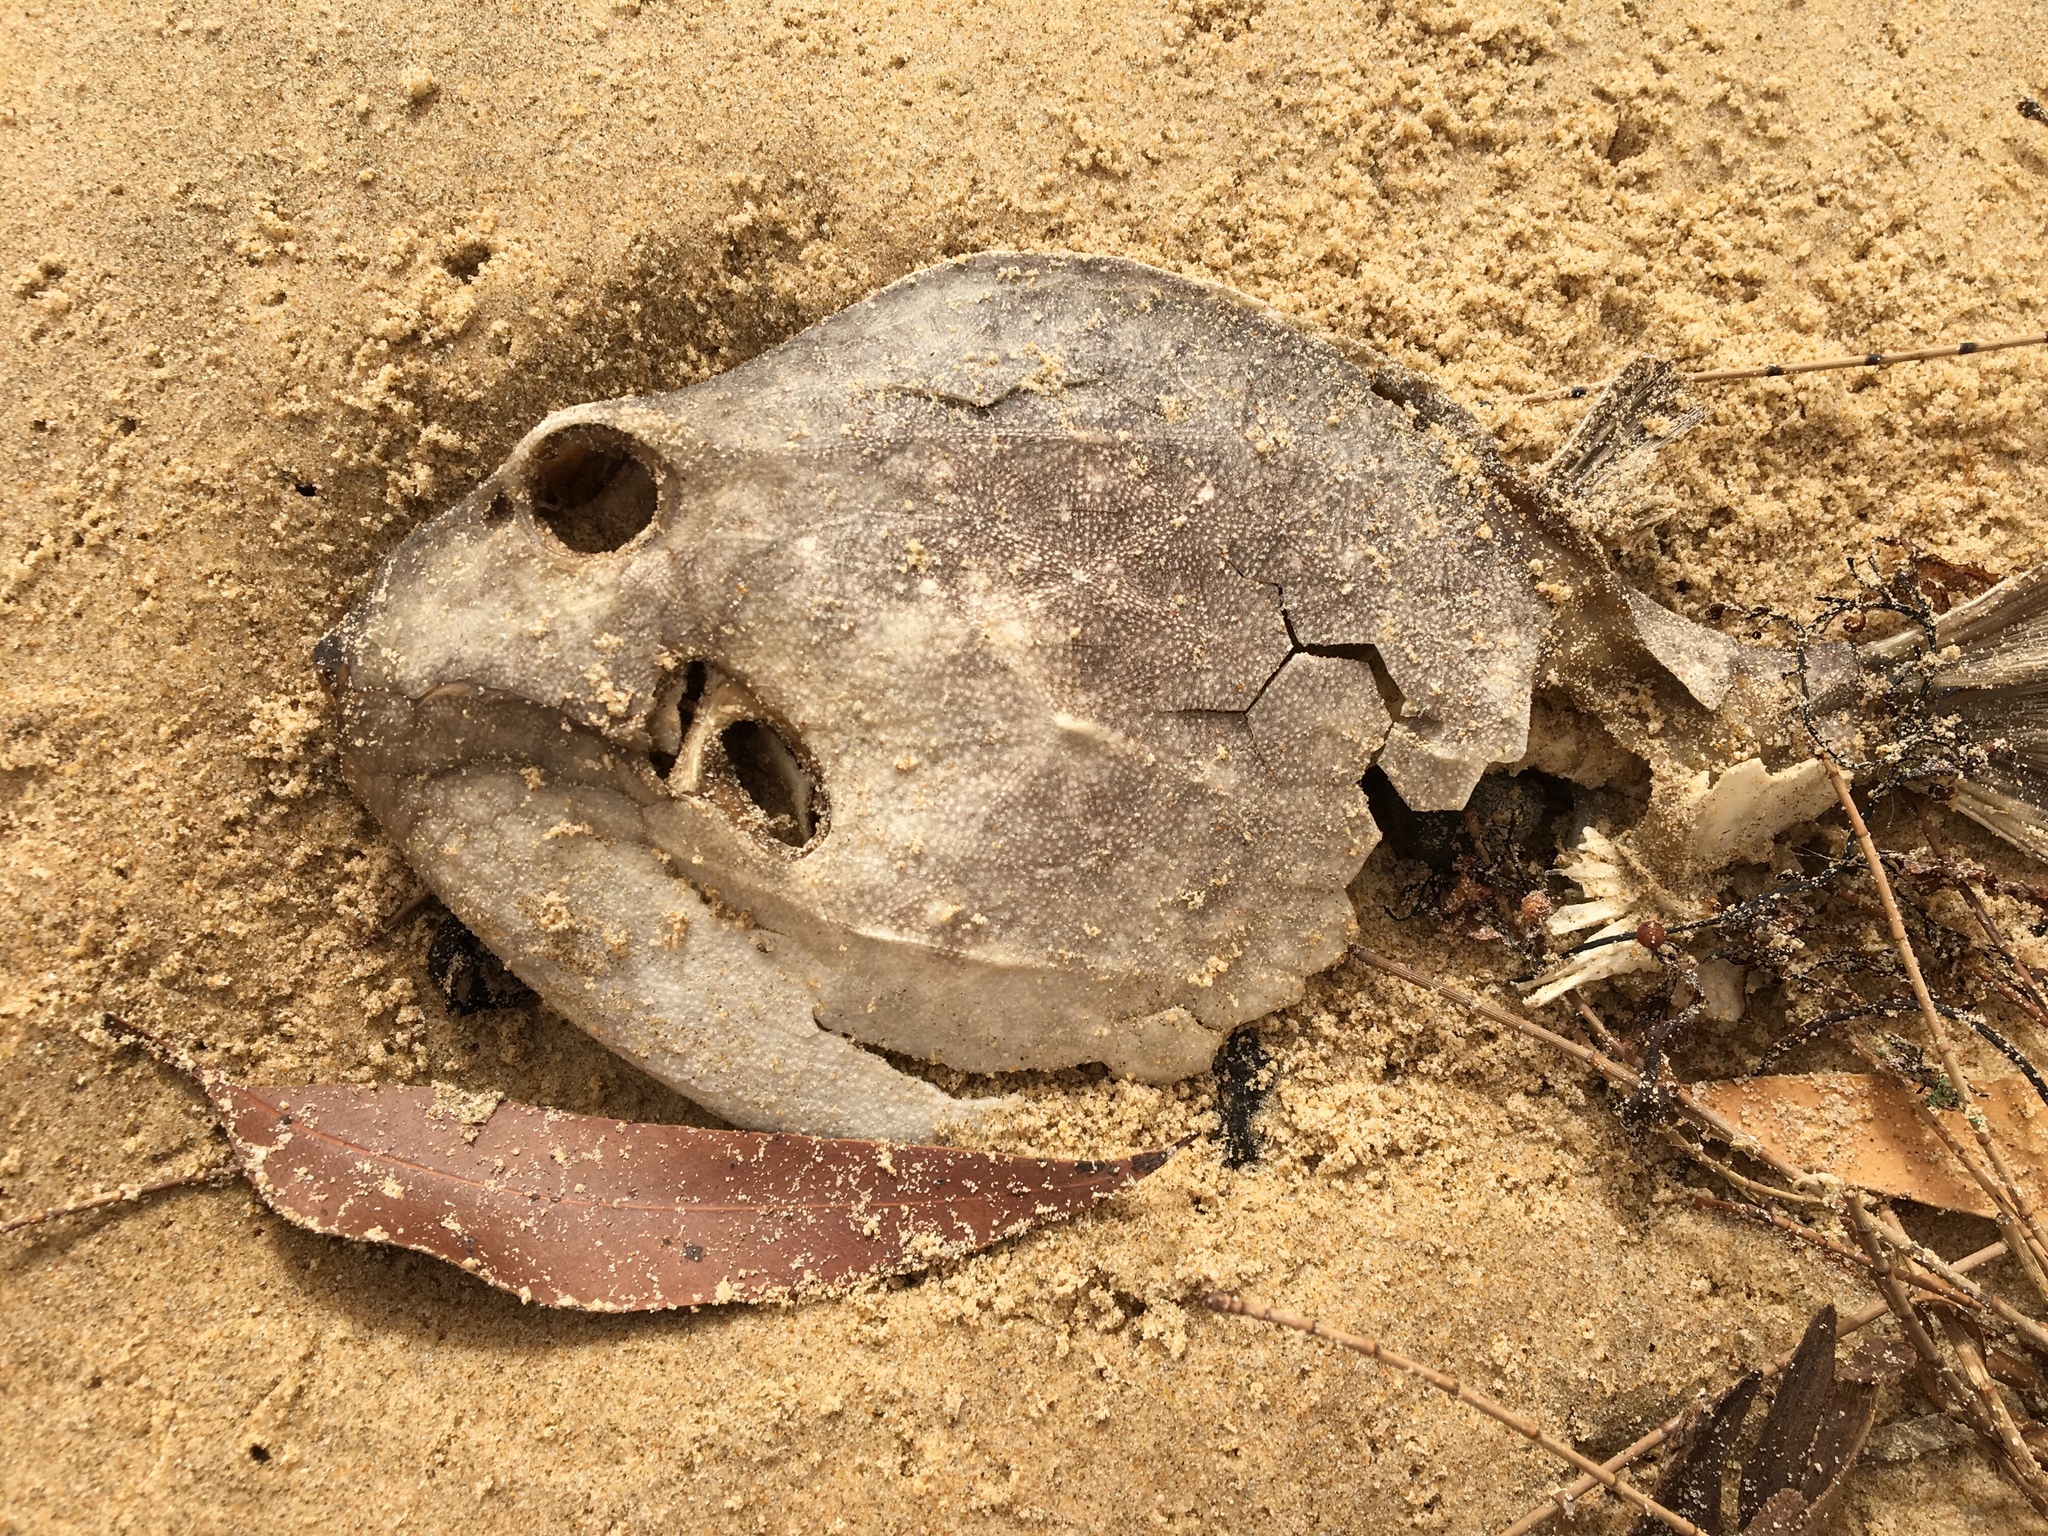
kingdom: Animalia
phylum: Chordata
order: Tetraodontiformes
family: Aracanidae
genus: Anoplocapros
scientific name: Anoplocapros inermis
